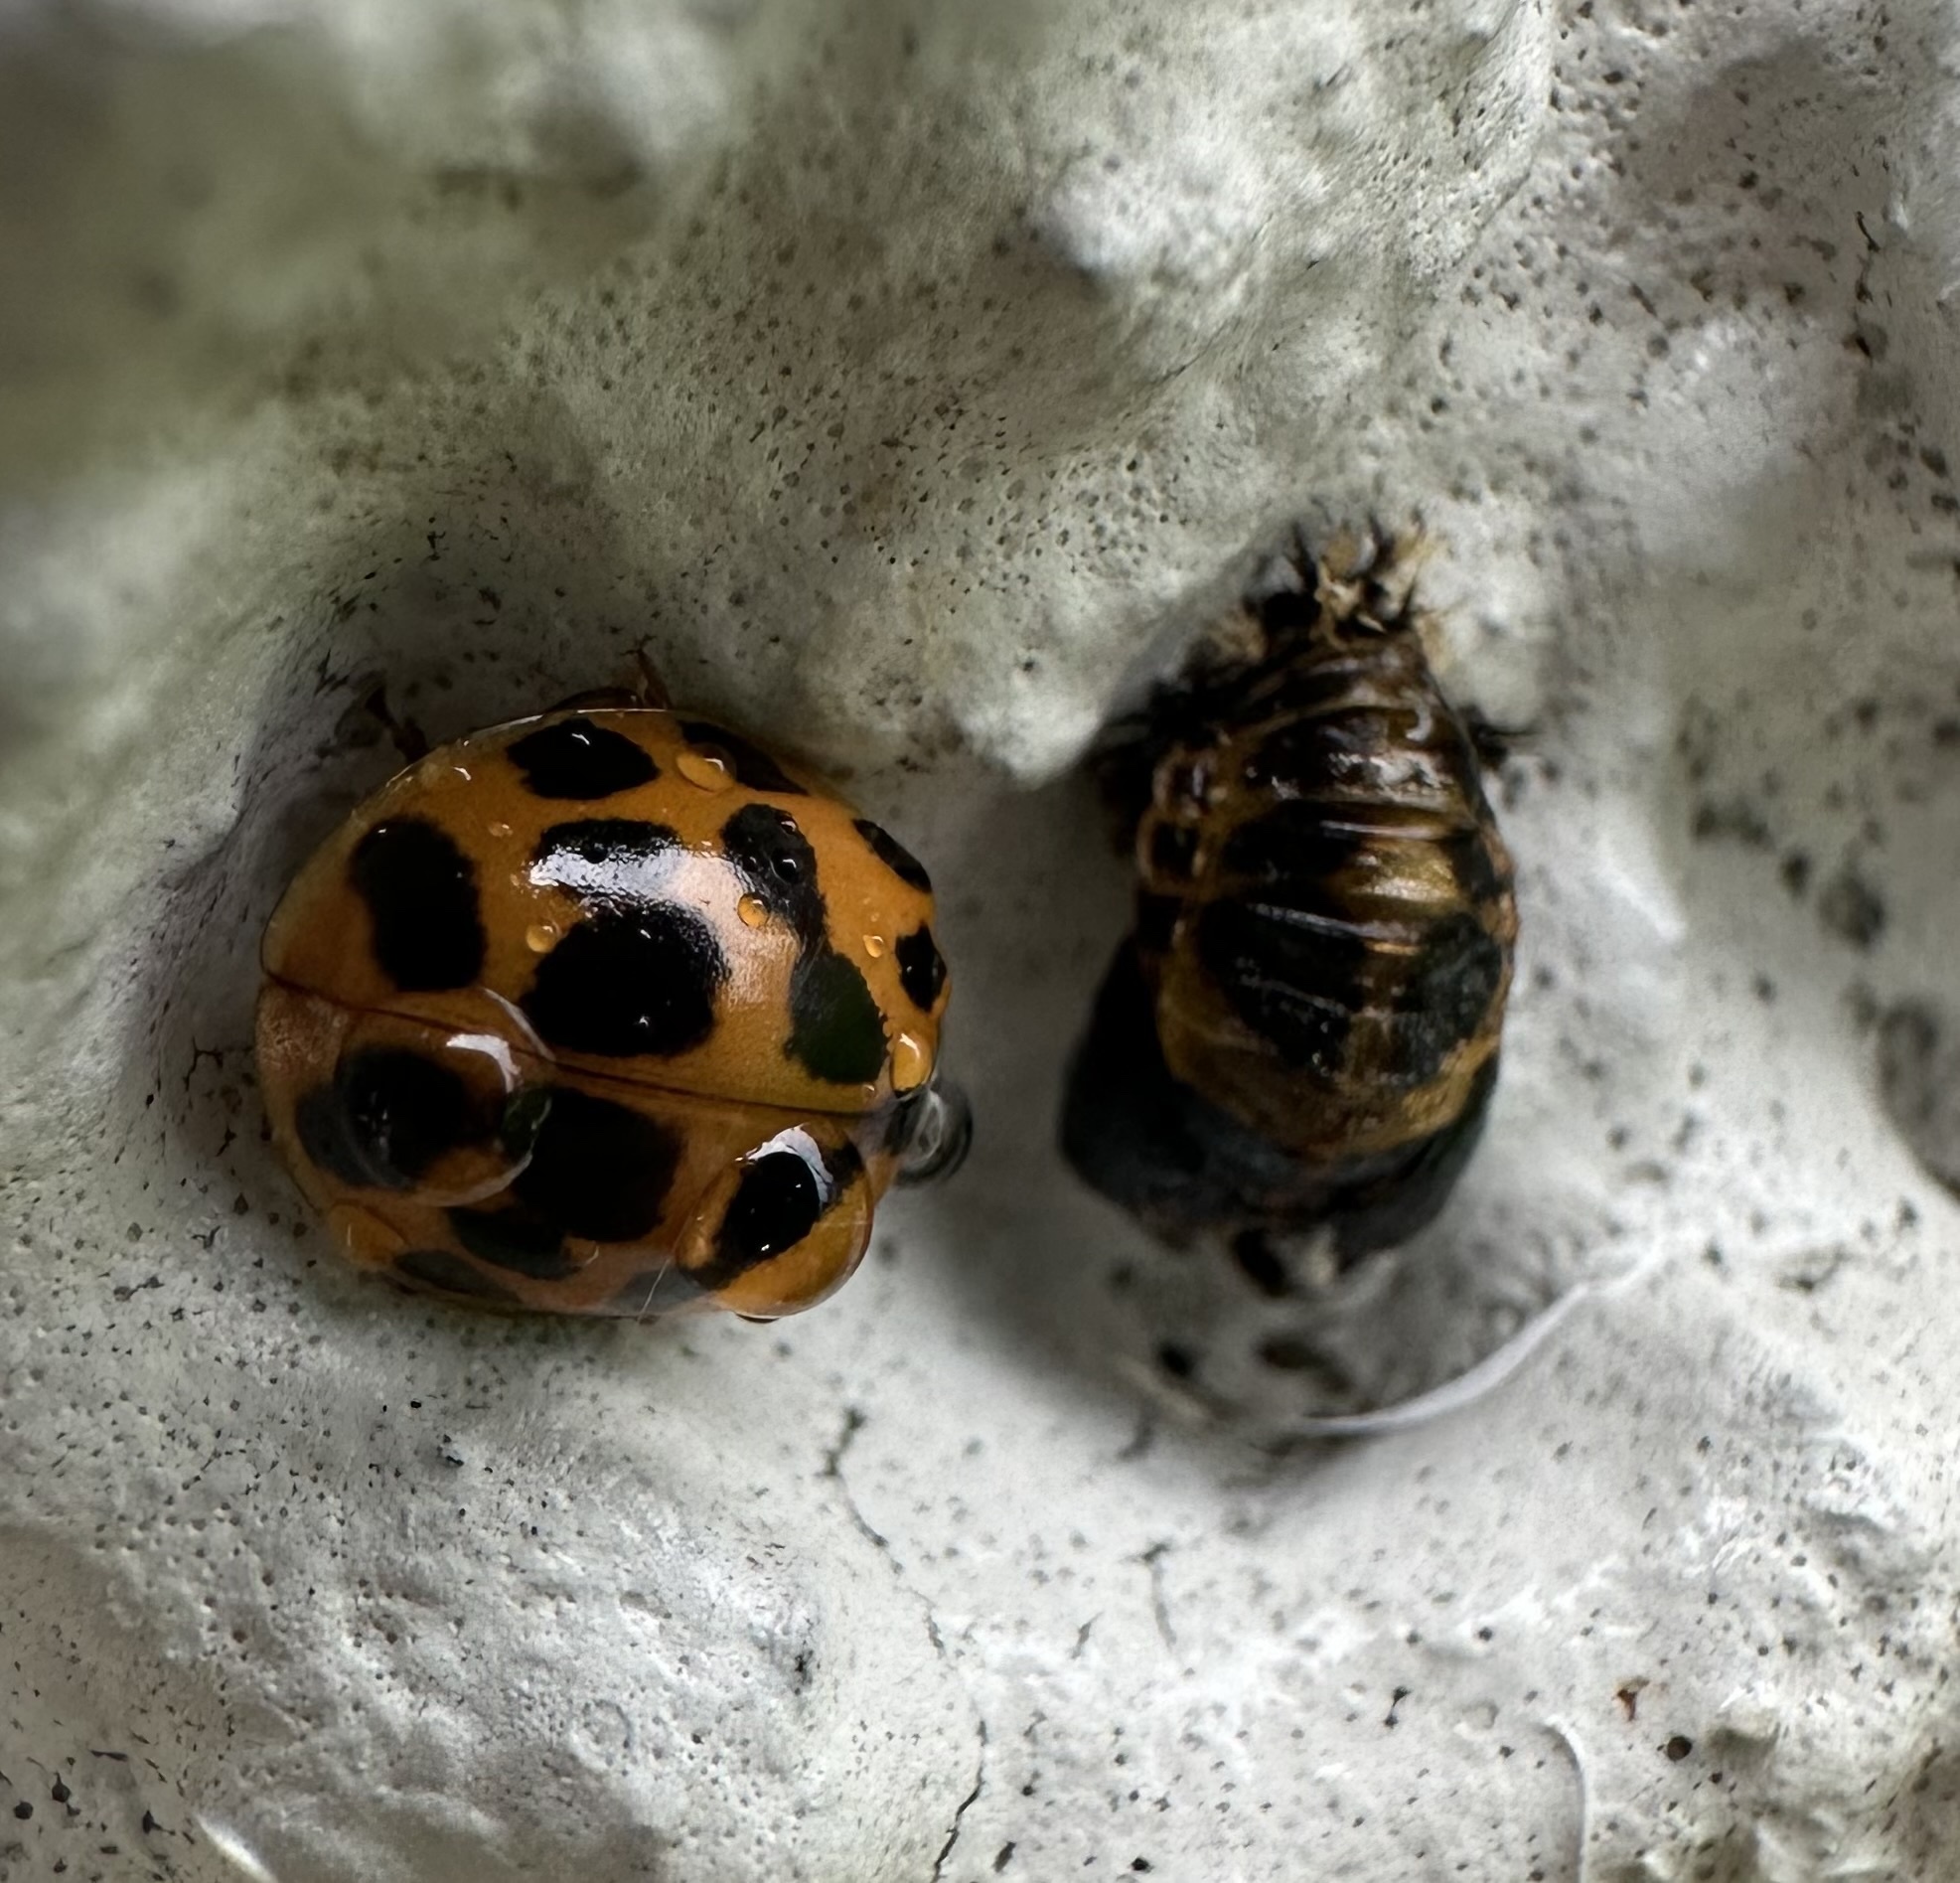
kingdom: Animalia
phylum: Arthropoda
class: Insecta
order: Coleoptera
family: Coccinellidae
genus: Harmonia
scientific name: Harmonia axyridis
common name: Harlequin ladybird
